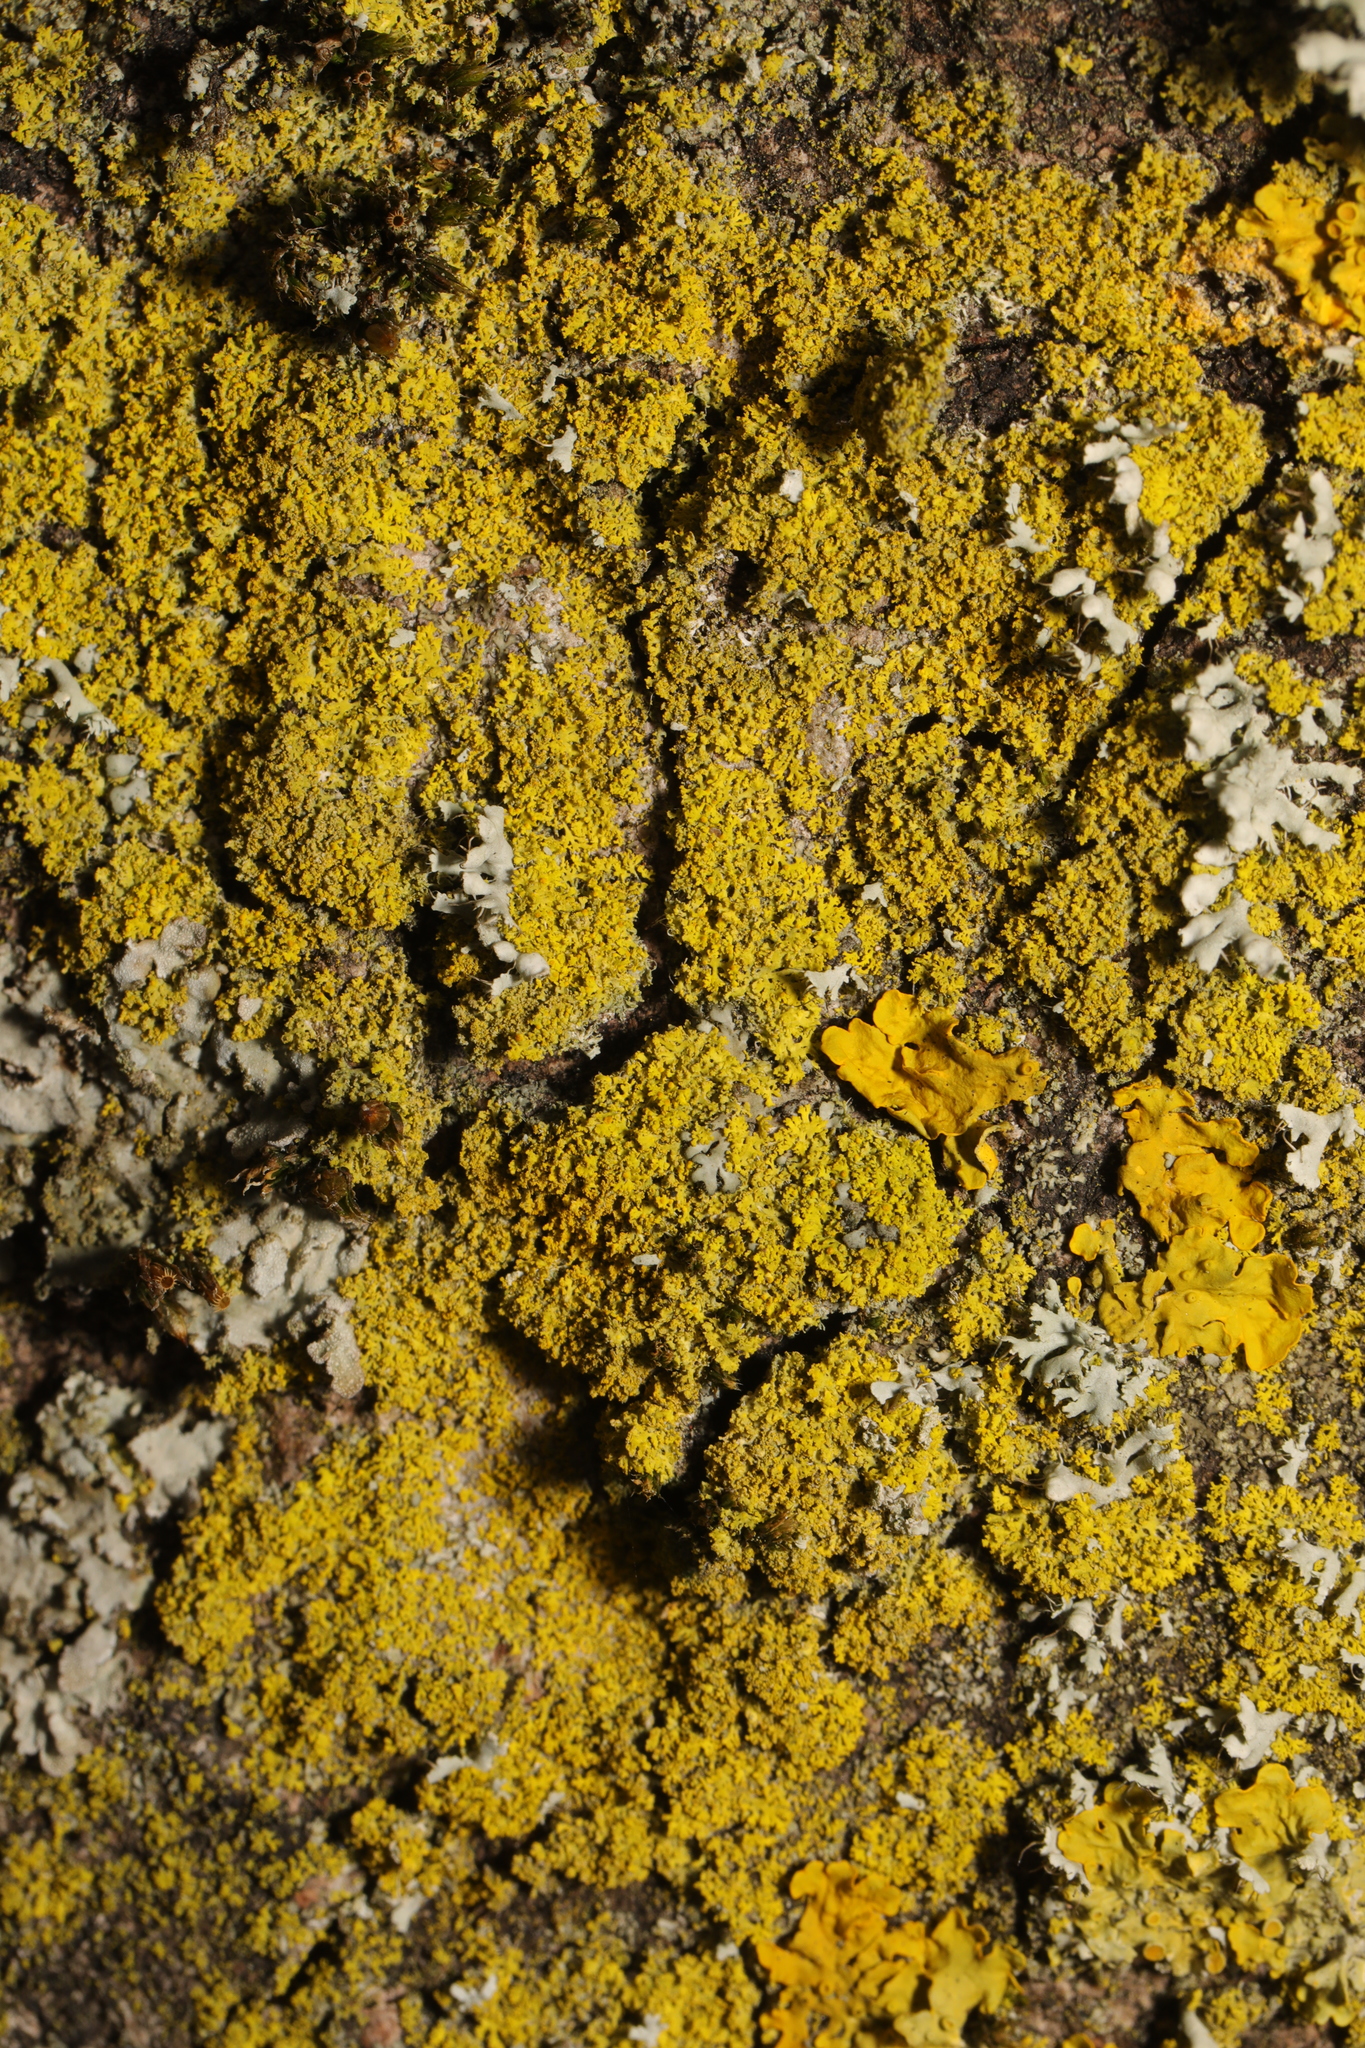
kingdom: Fungi
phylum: Ascomycota
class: Candelariomycetes
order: Candelariales
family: Candelariaceae
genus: Candelaria
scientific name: Candelaria concolor
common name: Candleflame lichen
